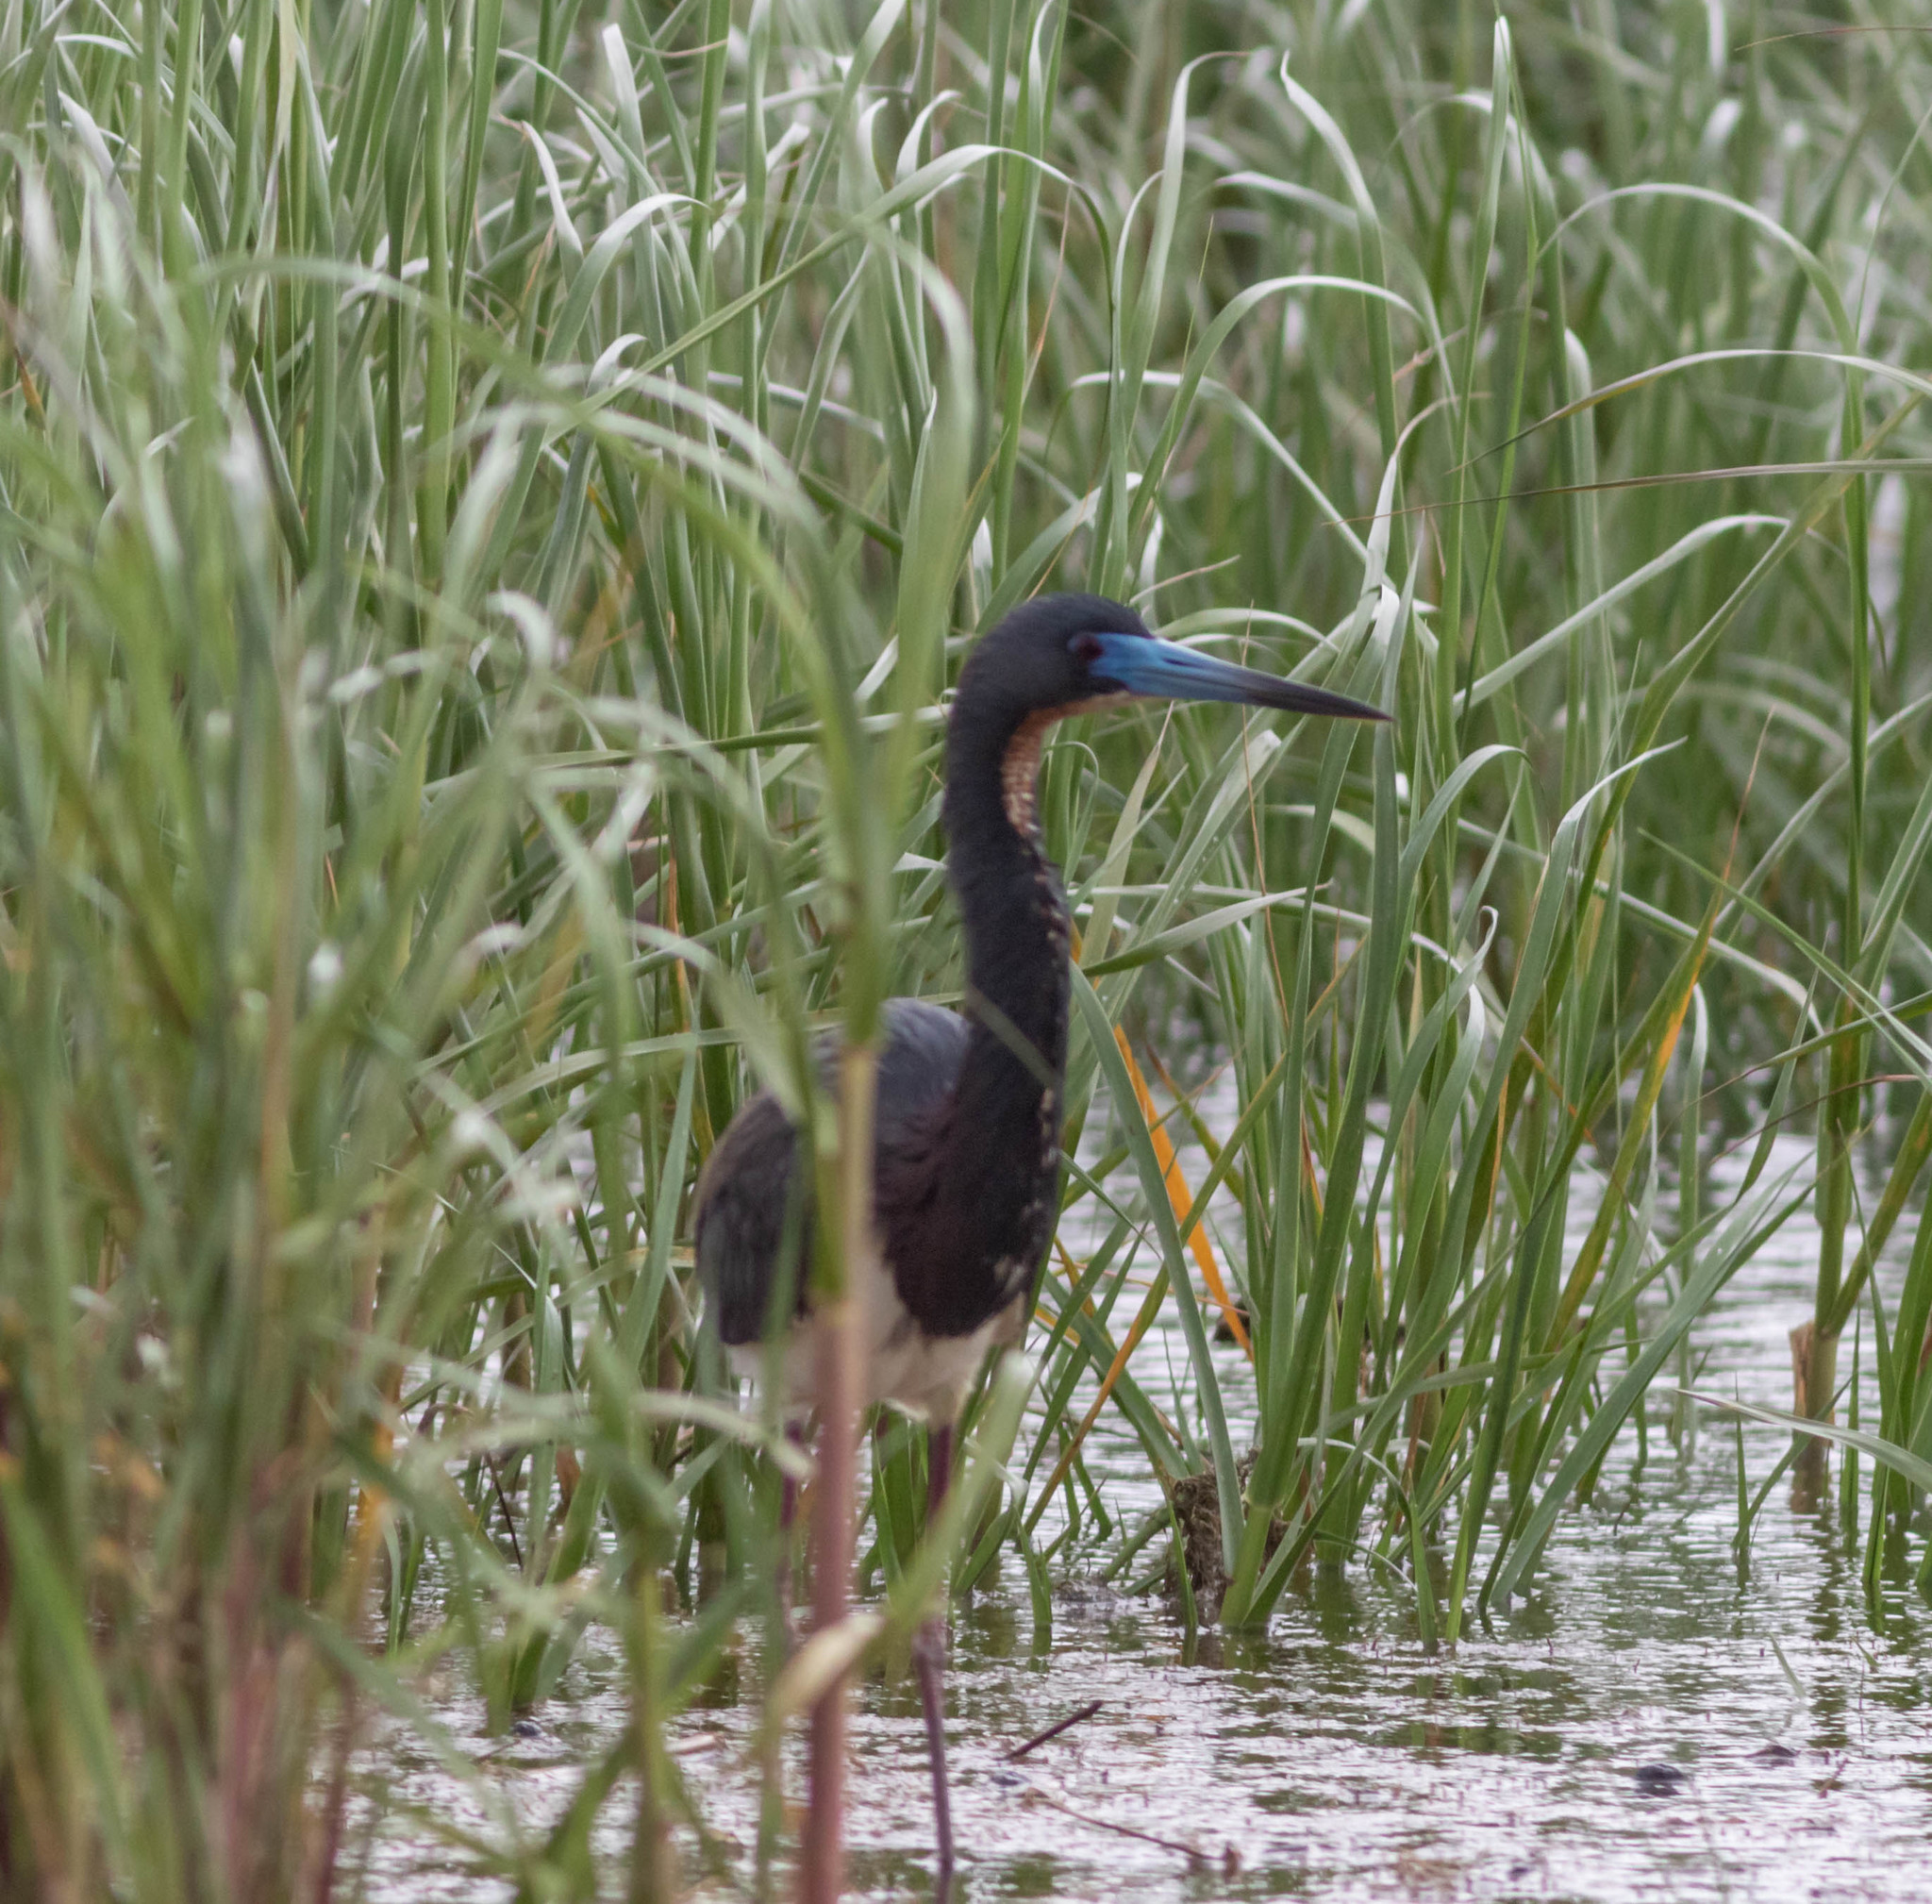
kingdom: Animalia
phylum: Chordata
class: Aves
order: Pelecaniformes
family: Ardeidae
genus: Egretta
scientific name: Egretta tricolor
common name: Tricolored heron
